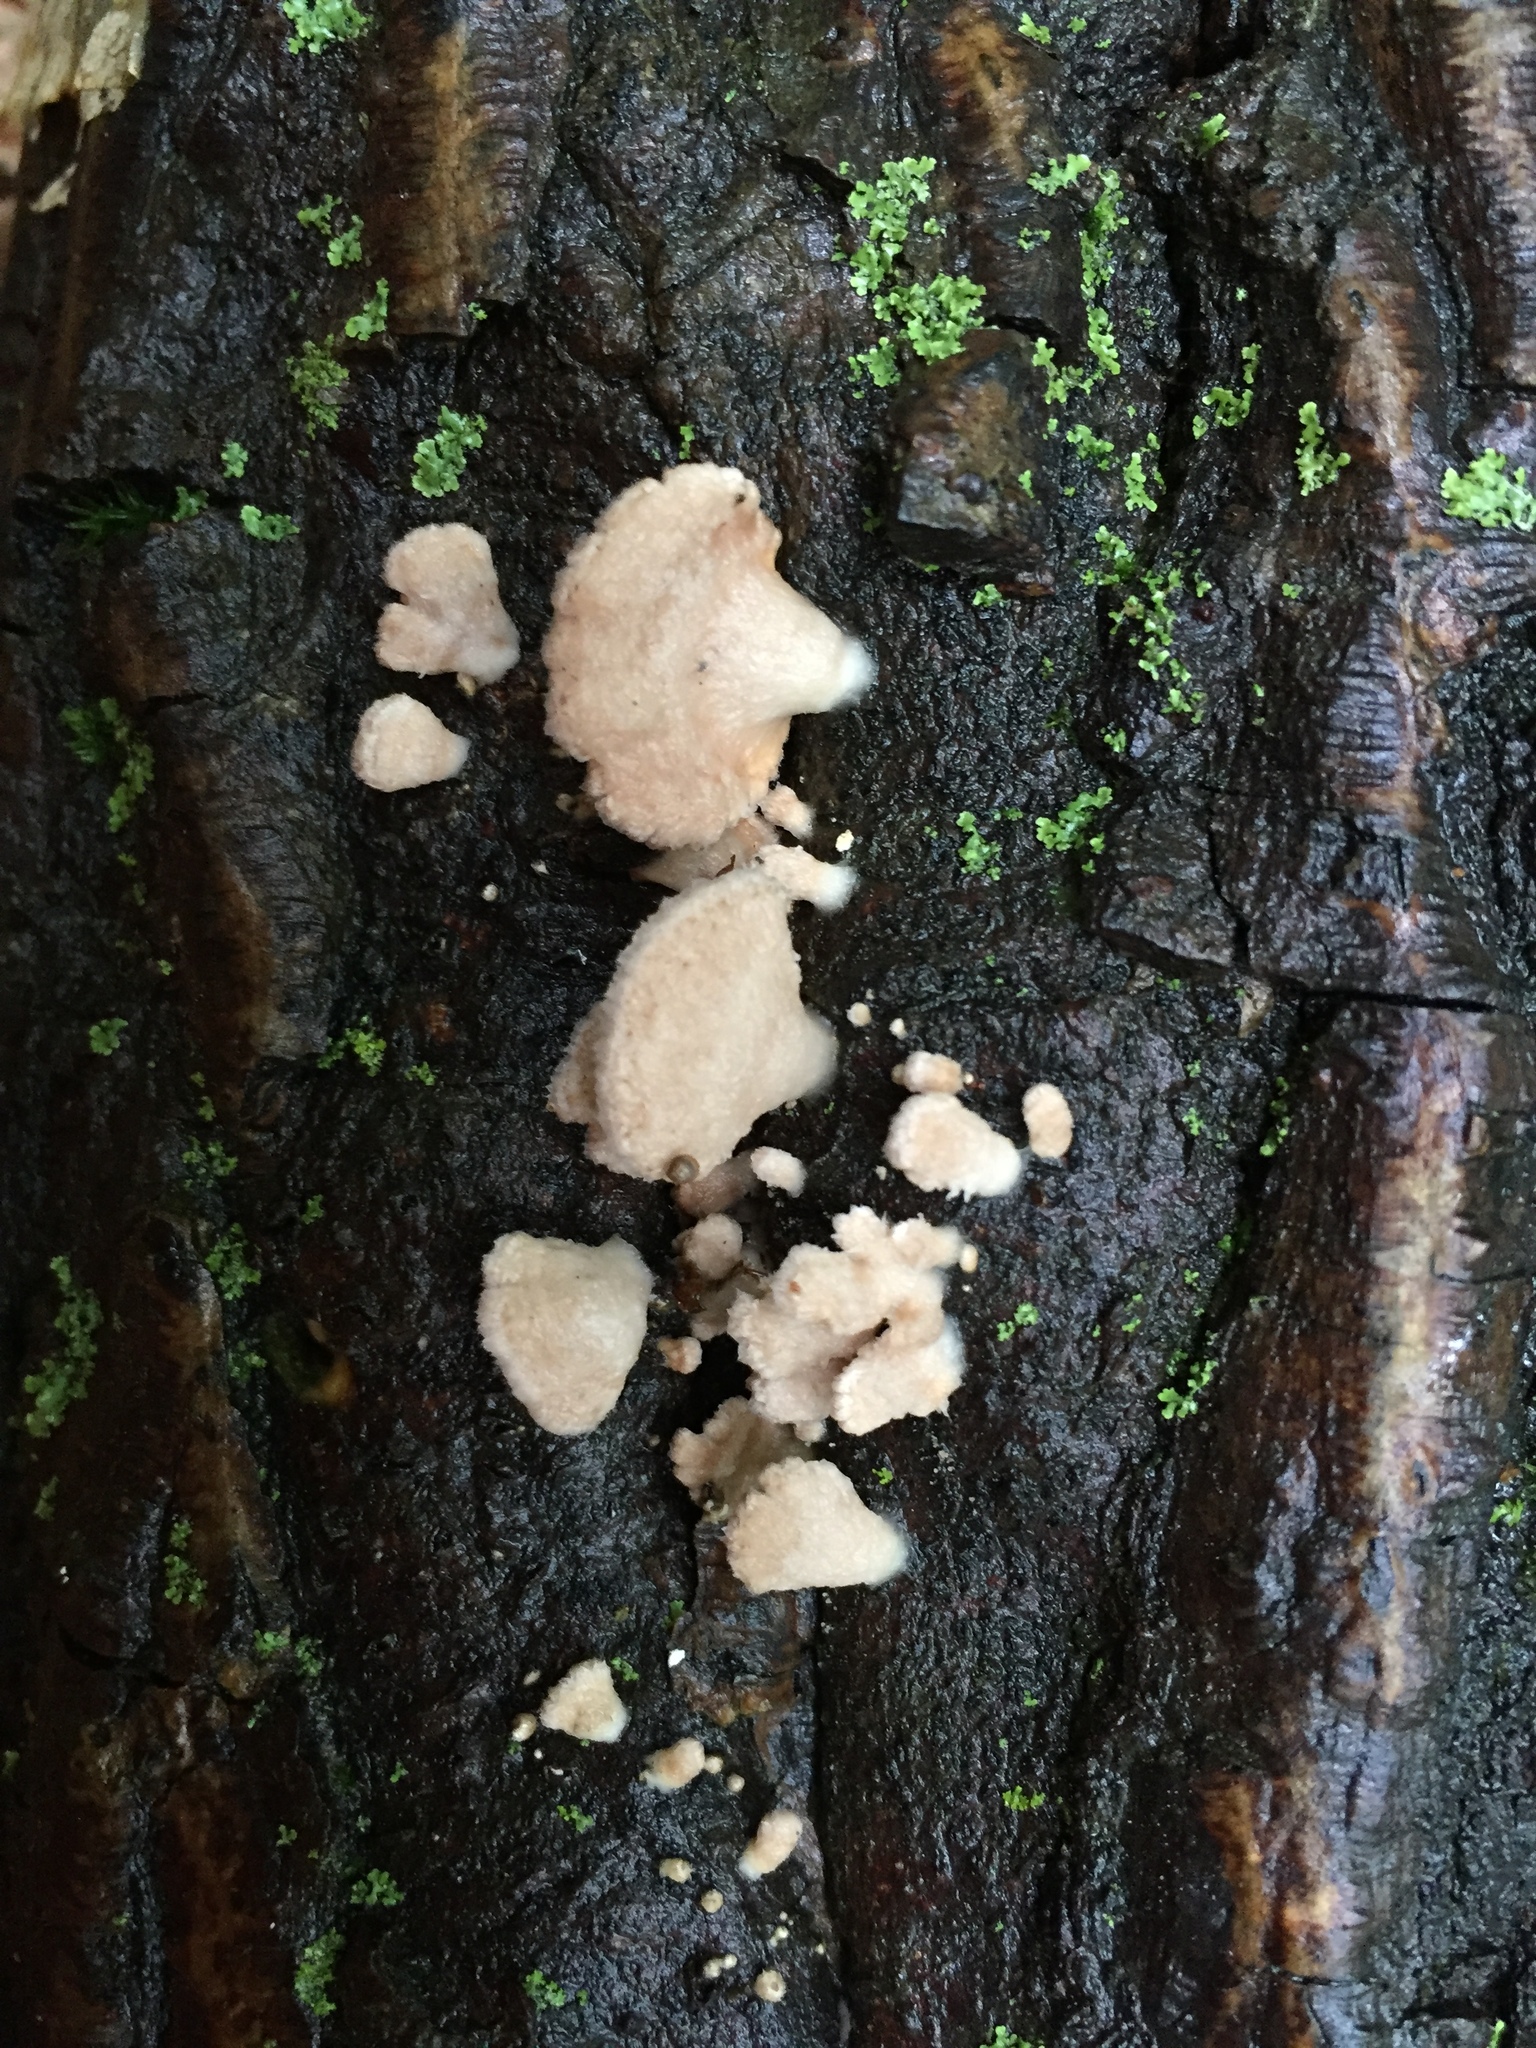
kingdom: Fungi
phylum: Basidiomycota
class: Agaricomycetes
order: Agaricales
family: Schizophyllaceae
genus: Schizophyllum
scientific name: Schizophyllum commune
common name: Common porecrust
